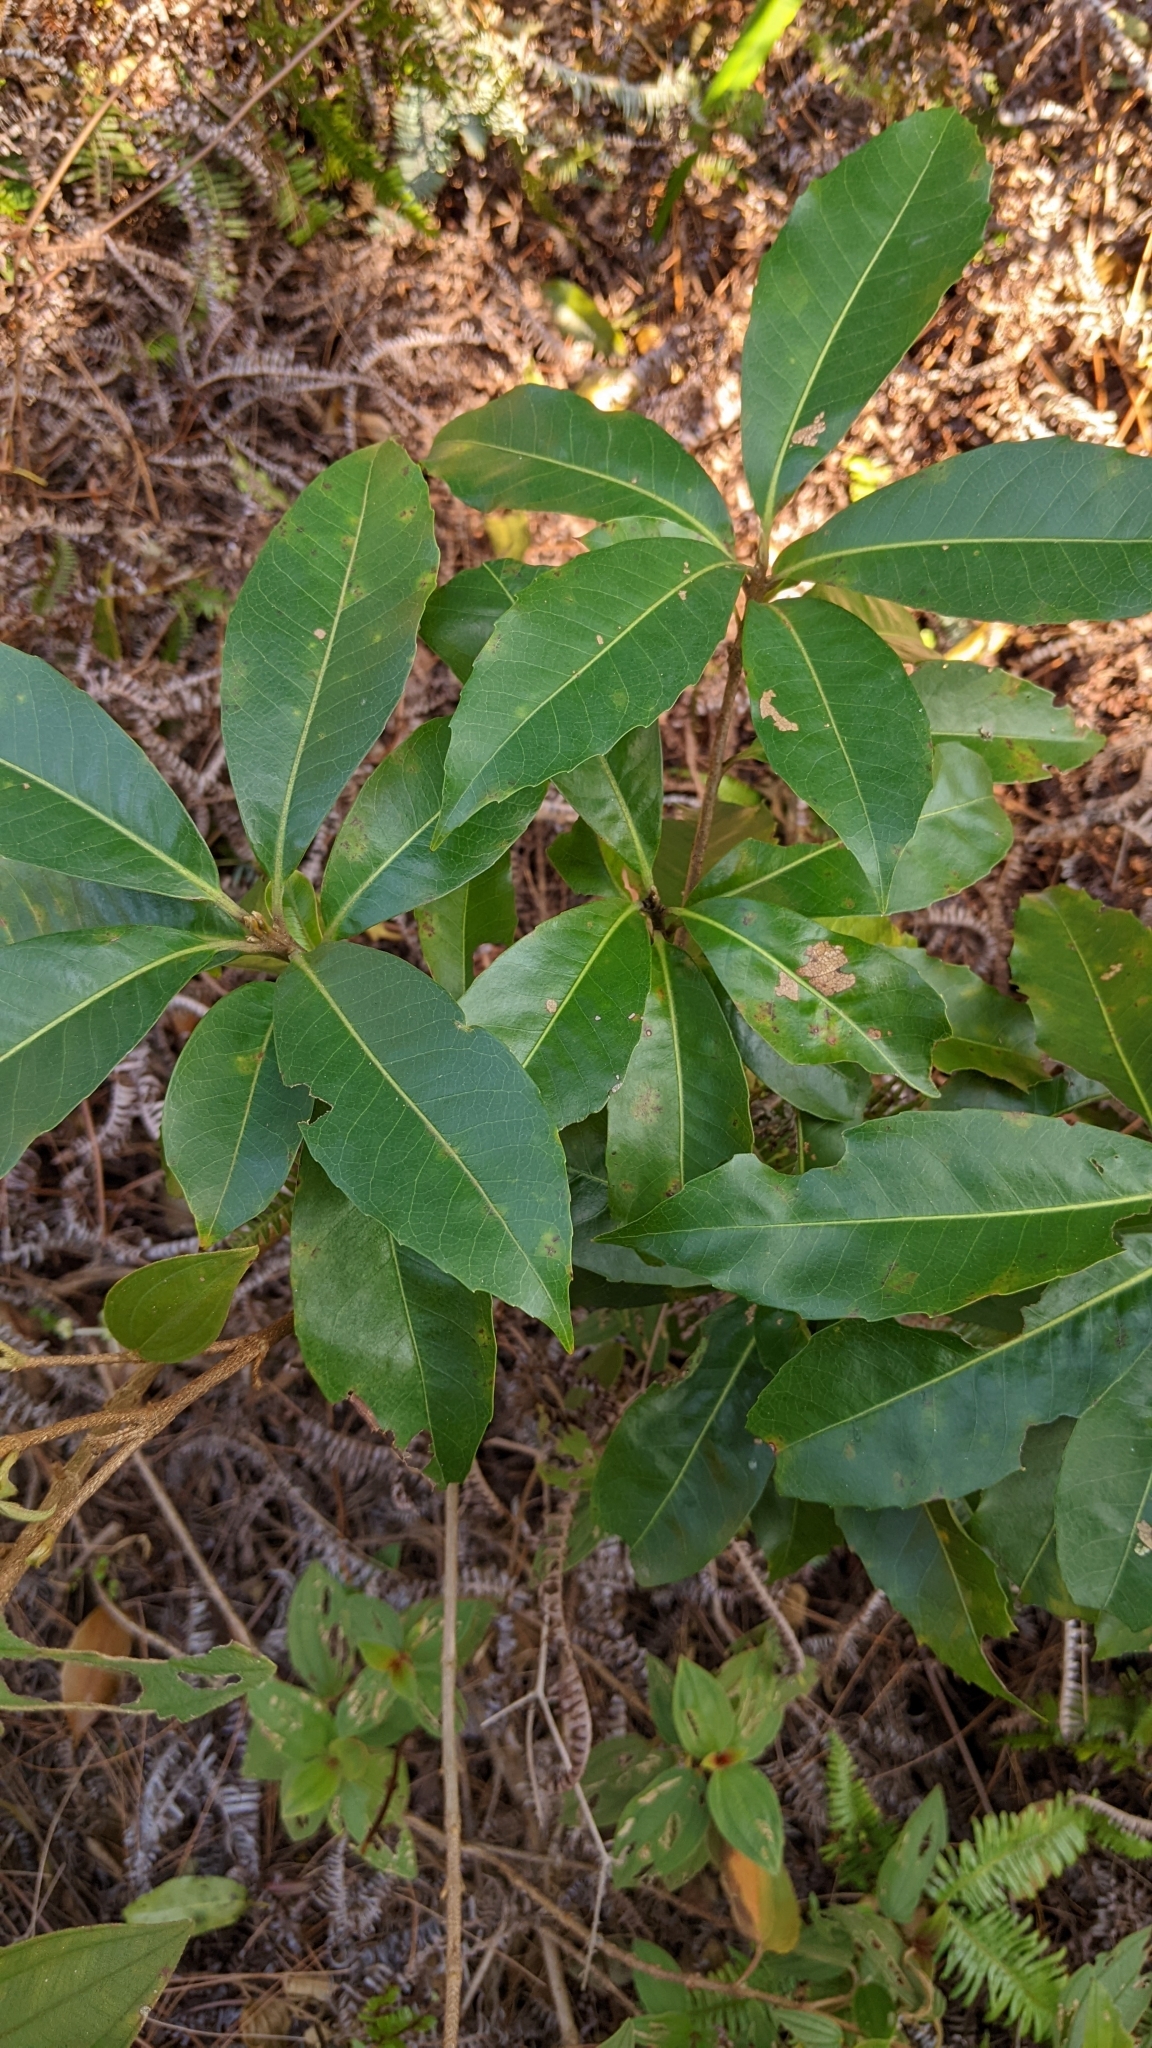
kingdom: Plantae
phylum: Tracheophyta
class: Magnoliopsida
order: Ericales
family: Theaceae
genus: Schima
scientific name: Schima superba
